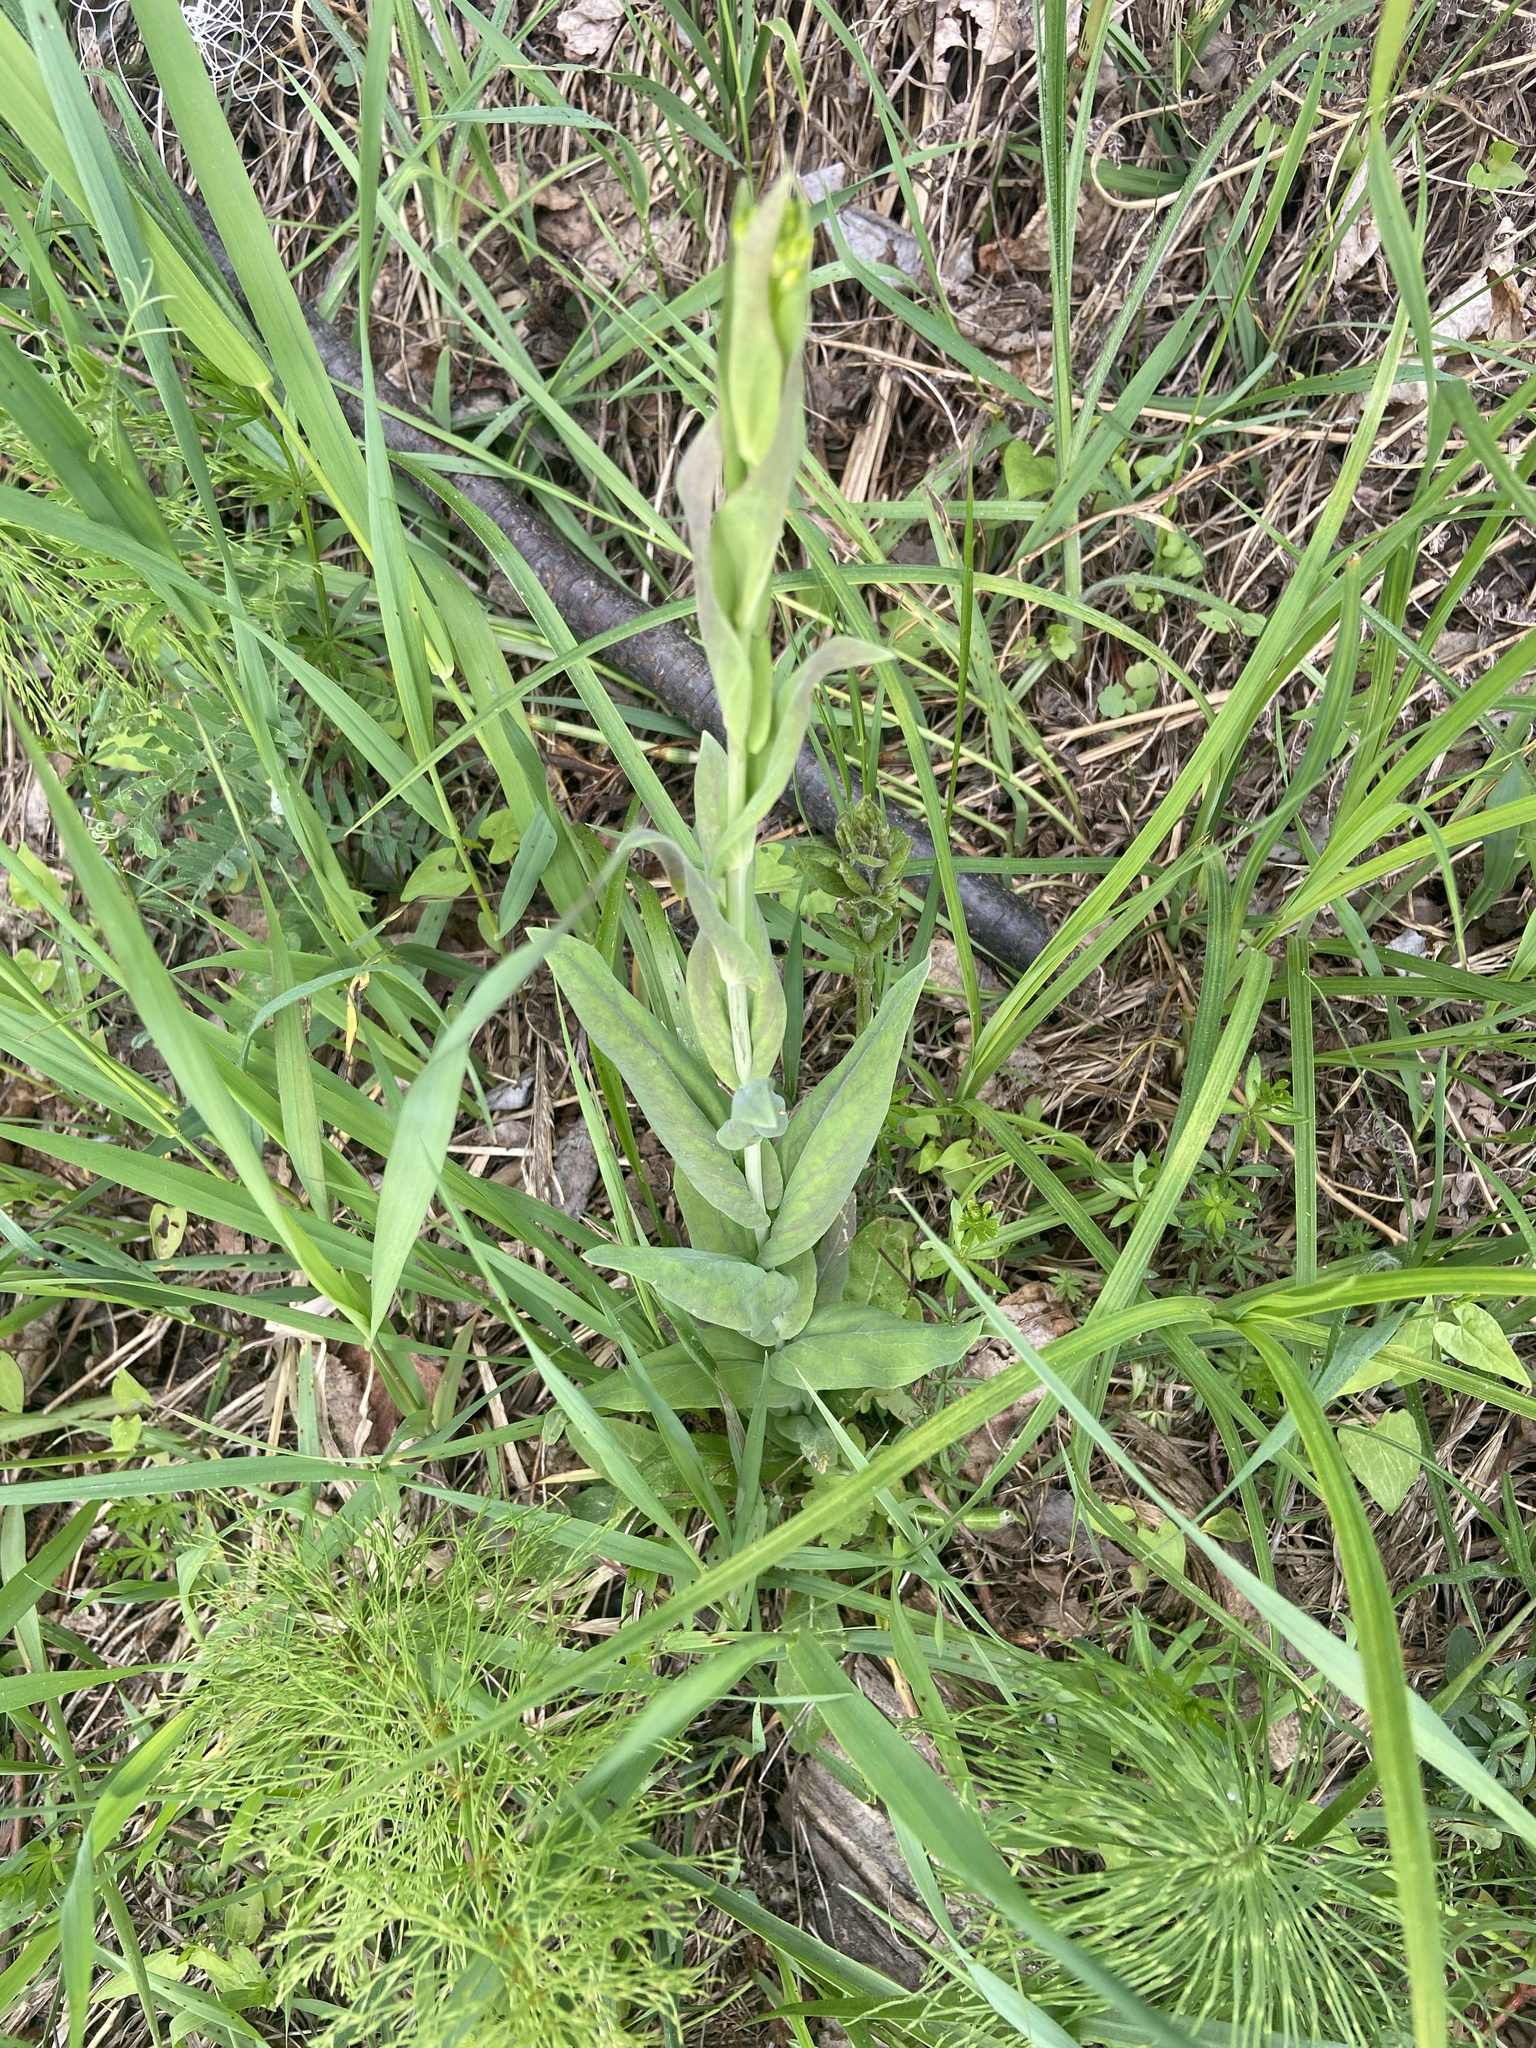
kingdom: Plantae
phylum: Tracheophyta
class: Magnoliopsida
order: Brassicales
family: Brassicaceae
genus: Turritis
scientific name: Turritis glabra
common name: Tower rockcress
